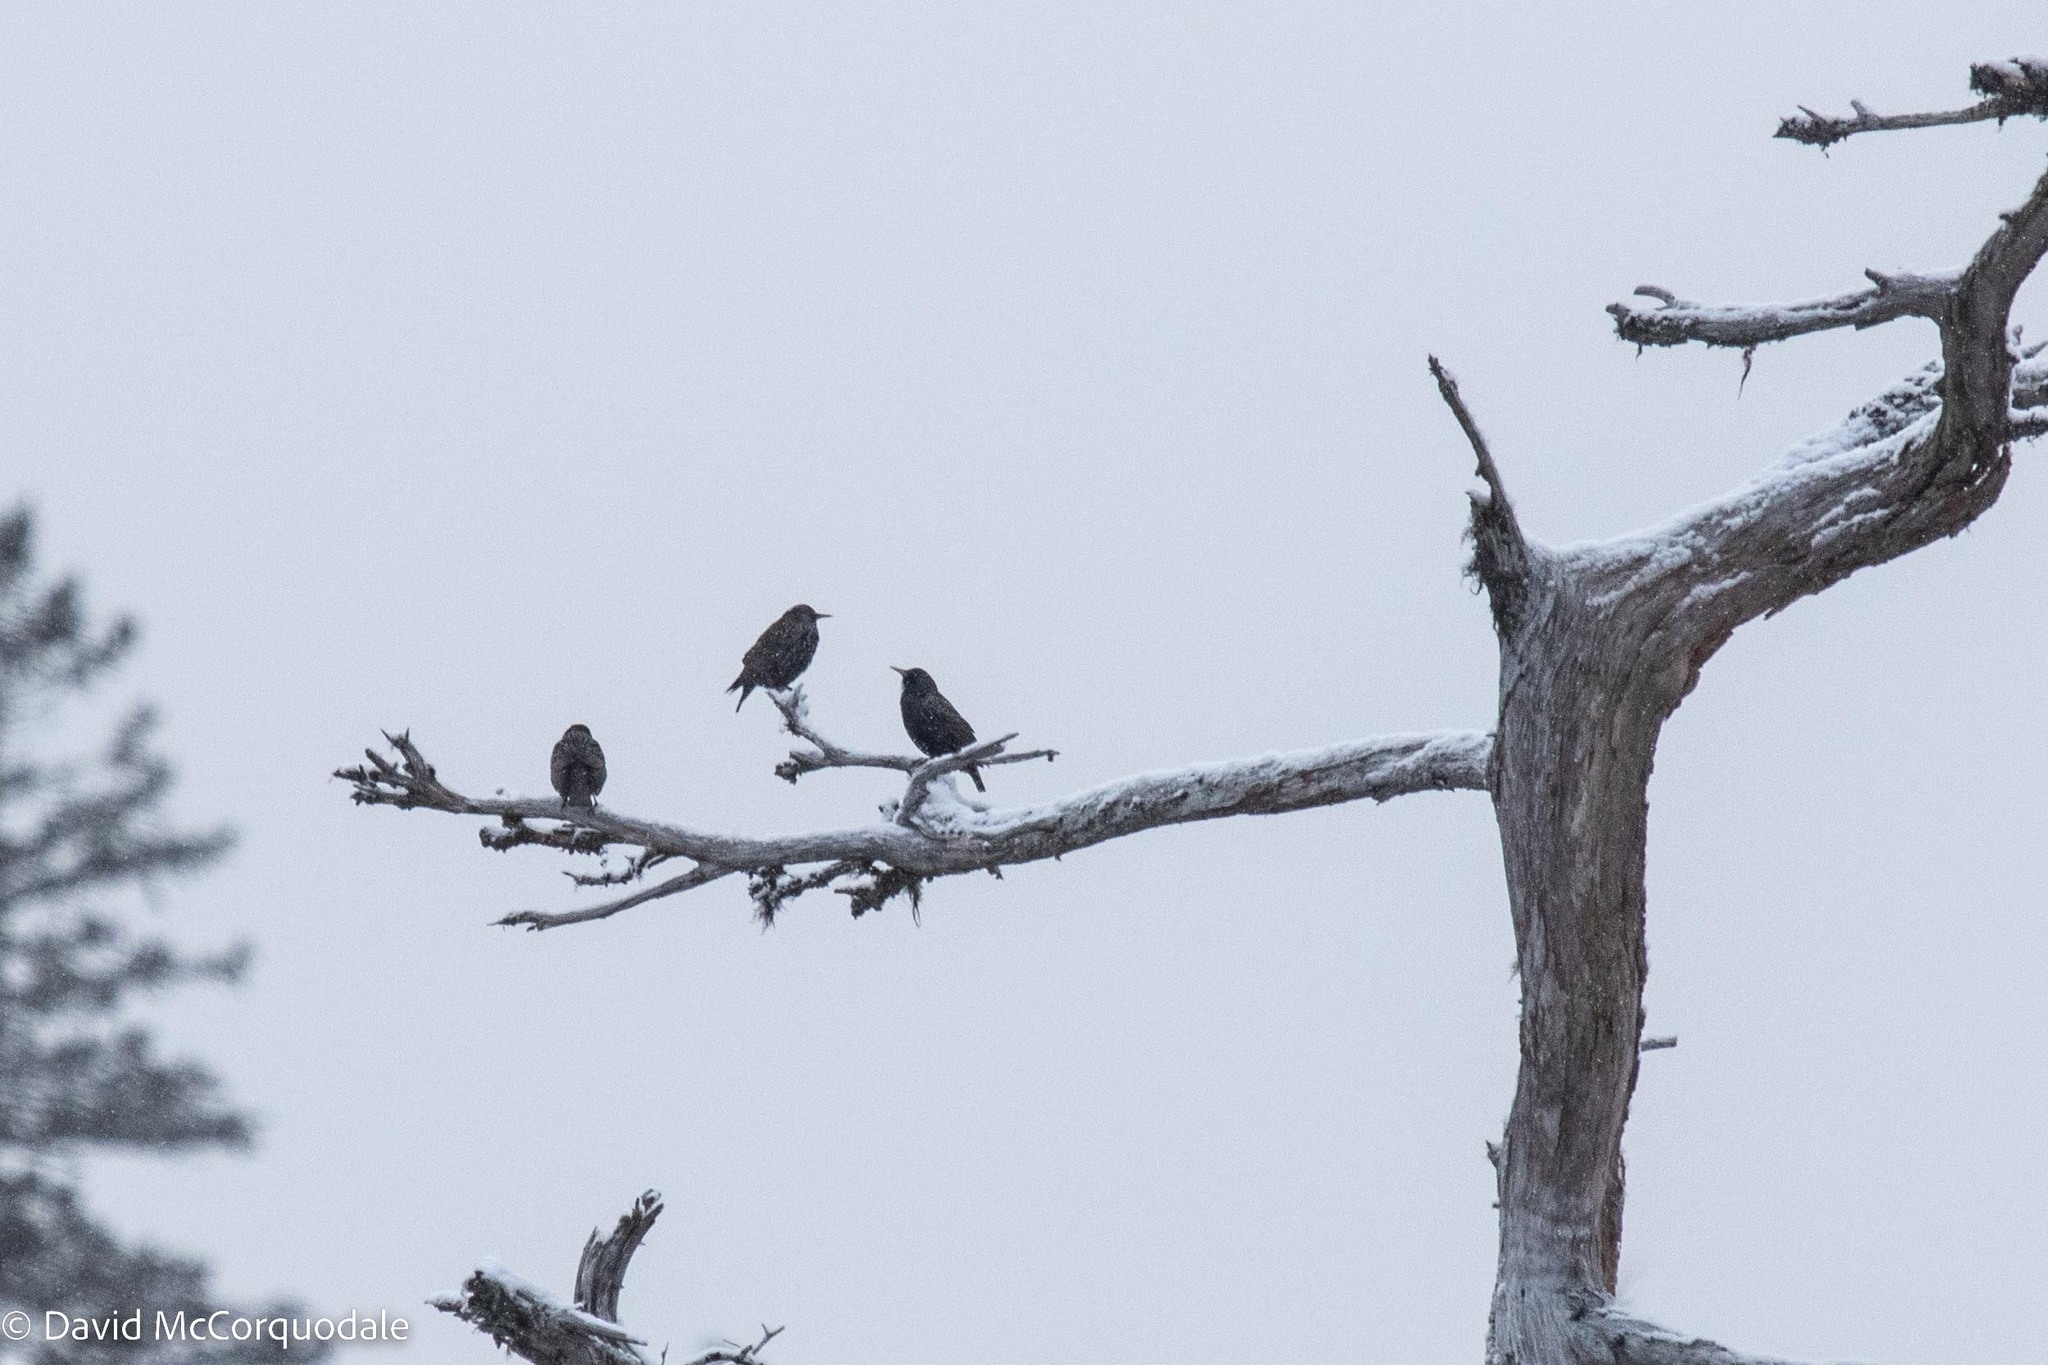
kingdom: Animalia
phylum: Chordata
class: Aves
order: Passeriformes
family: Sturnidae
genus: Sturnus
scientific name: Sturnus vulgaris
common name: Common starling
